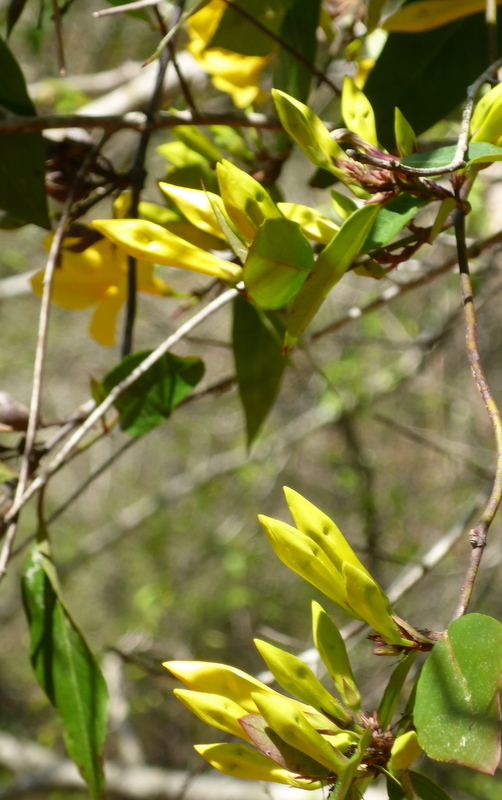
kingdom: Plantae
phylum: Tracheophyta
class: Magnoliopsida
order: Gentianales
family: Gelsemiaceae
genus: Gelsemium
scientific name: Gelsemium rankinii
